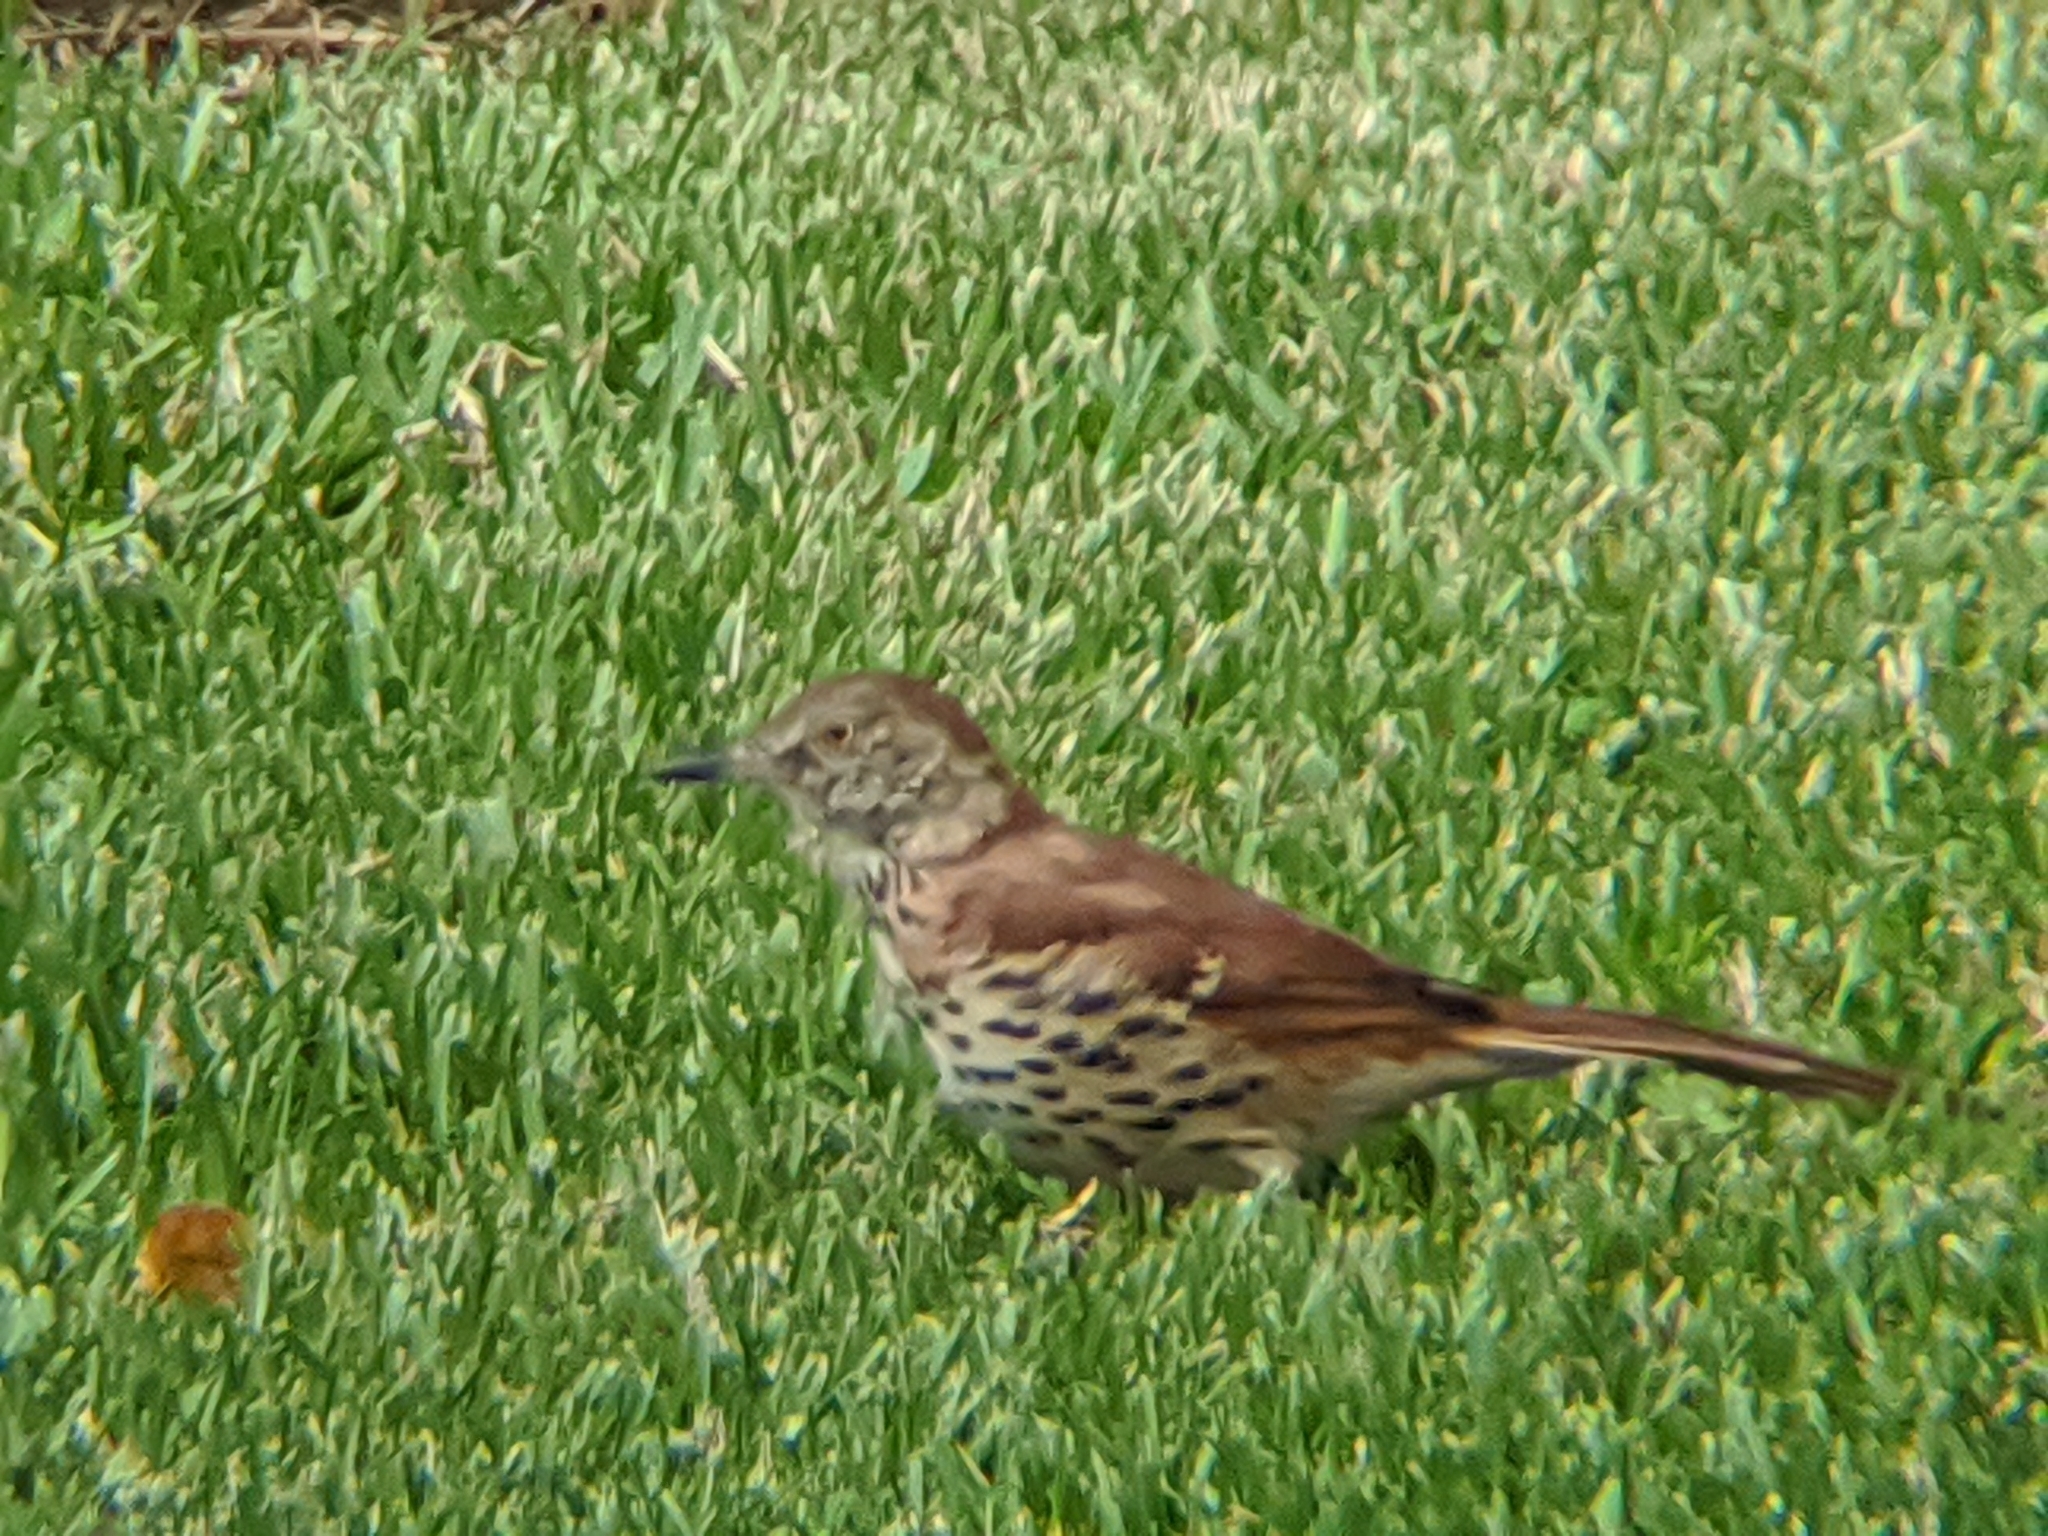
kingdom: Animalia
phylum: Chordata
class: Aves
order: Passeriformes
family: Mimidae
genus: Toxostoma
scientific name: Toxostoma rufum
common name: Brown thrasher
